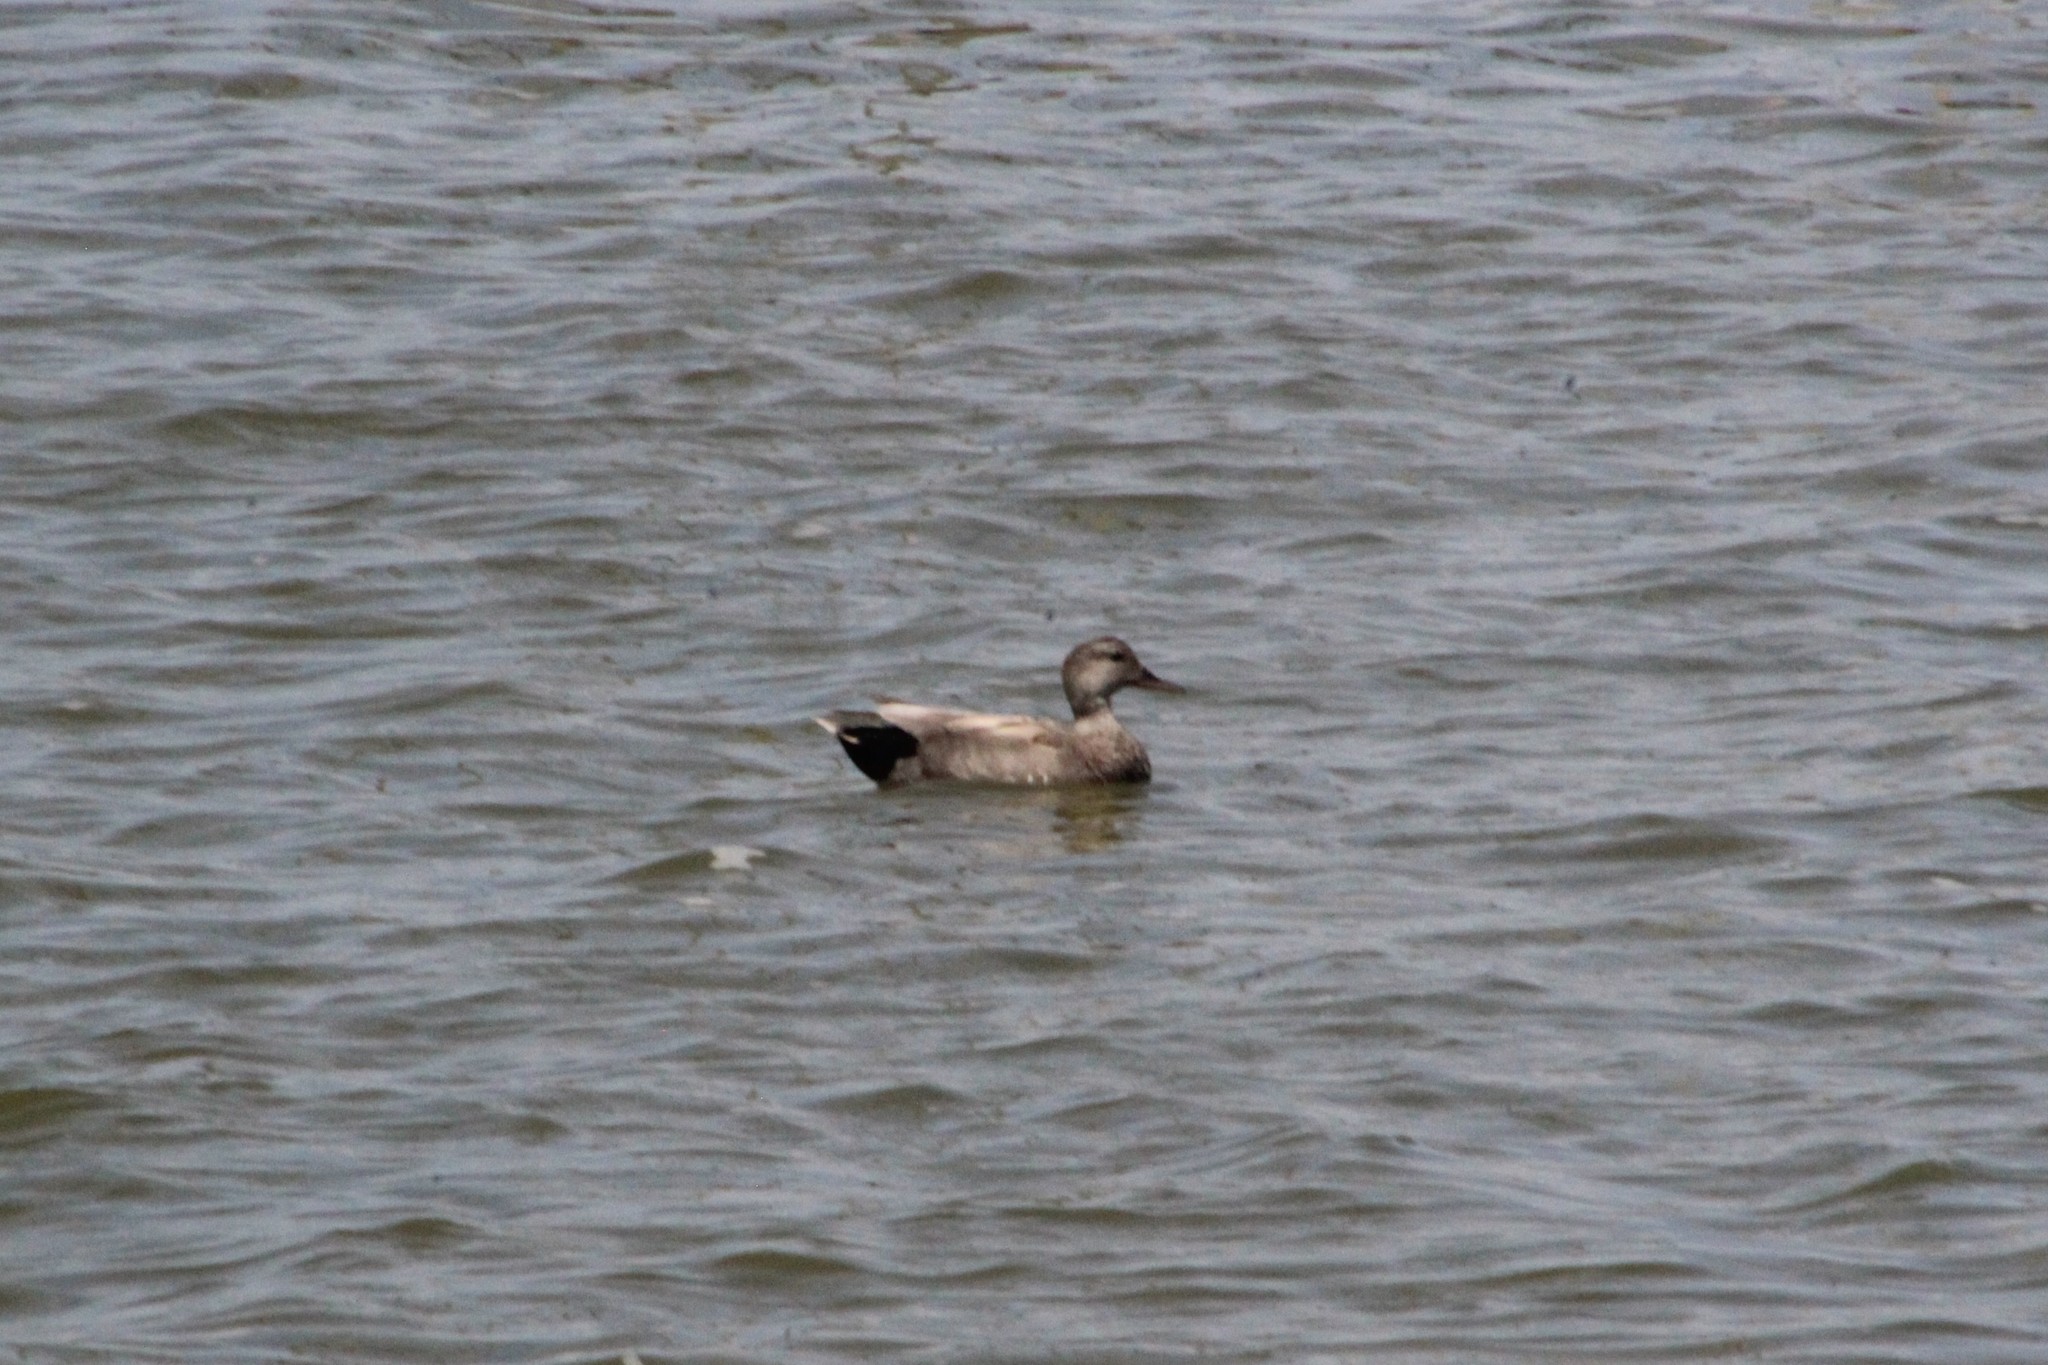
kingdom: Animalia
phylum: Chordata
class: Aves
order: Anseriformes
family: Anatidae
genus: Mareca
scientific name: Mareca strepera
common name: Gadwall
